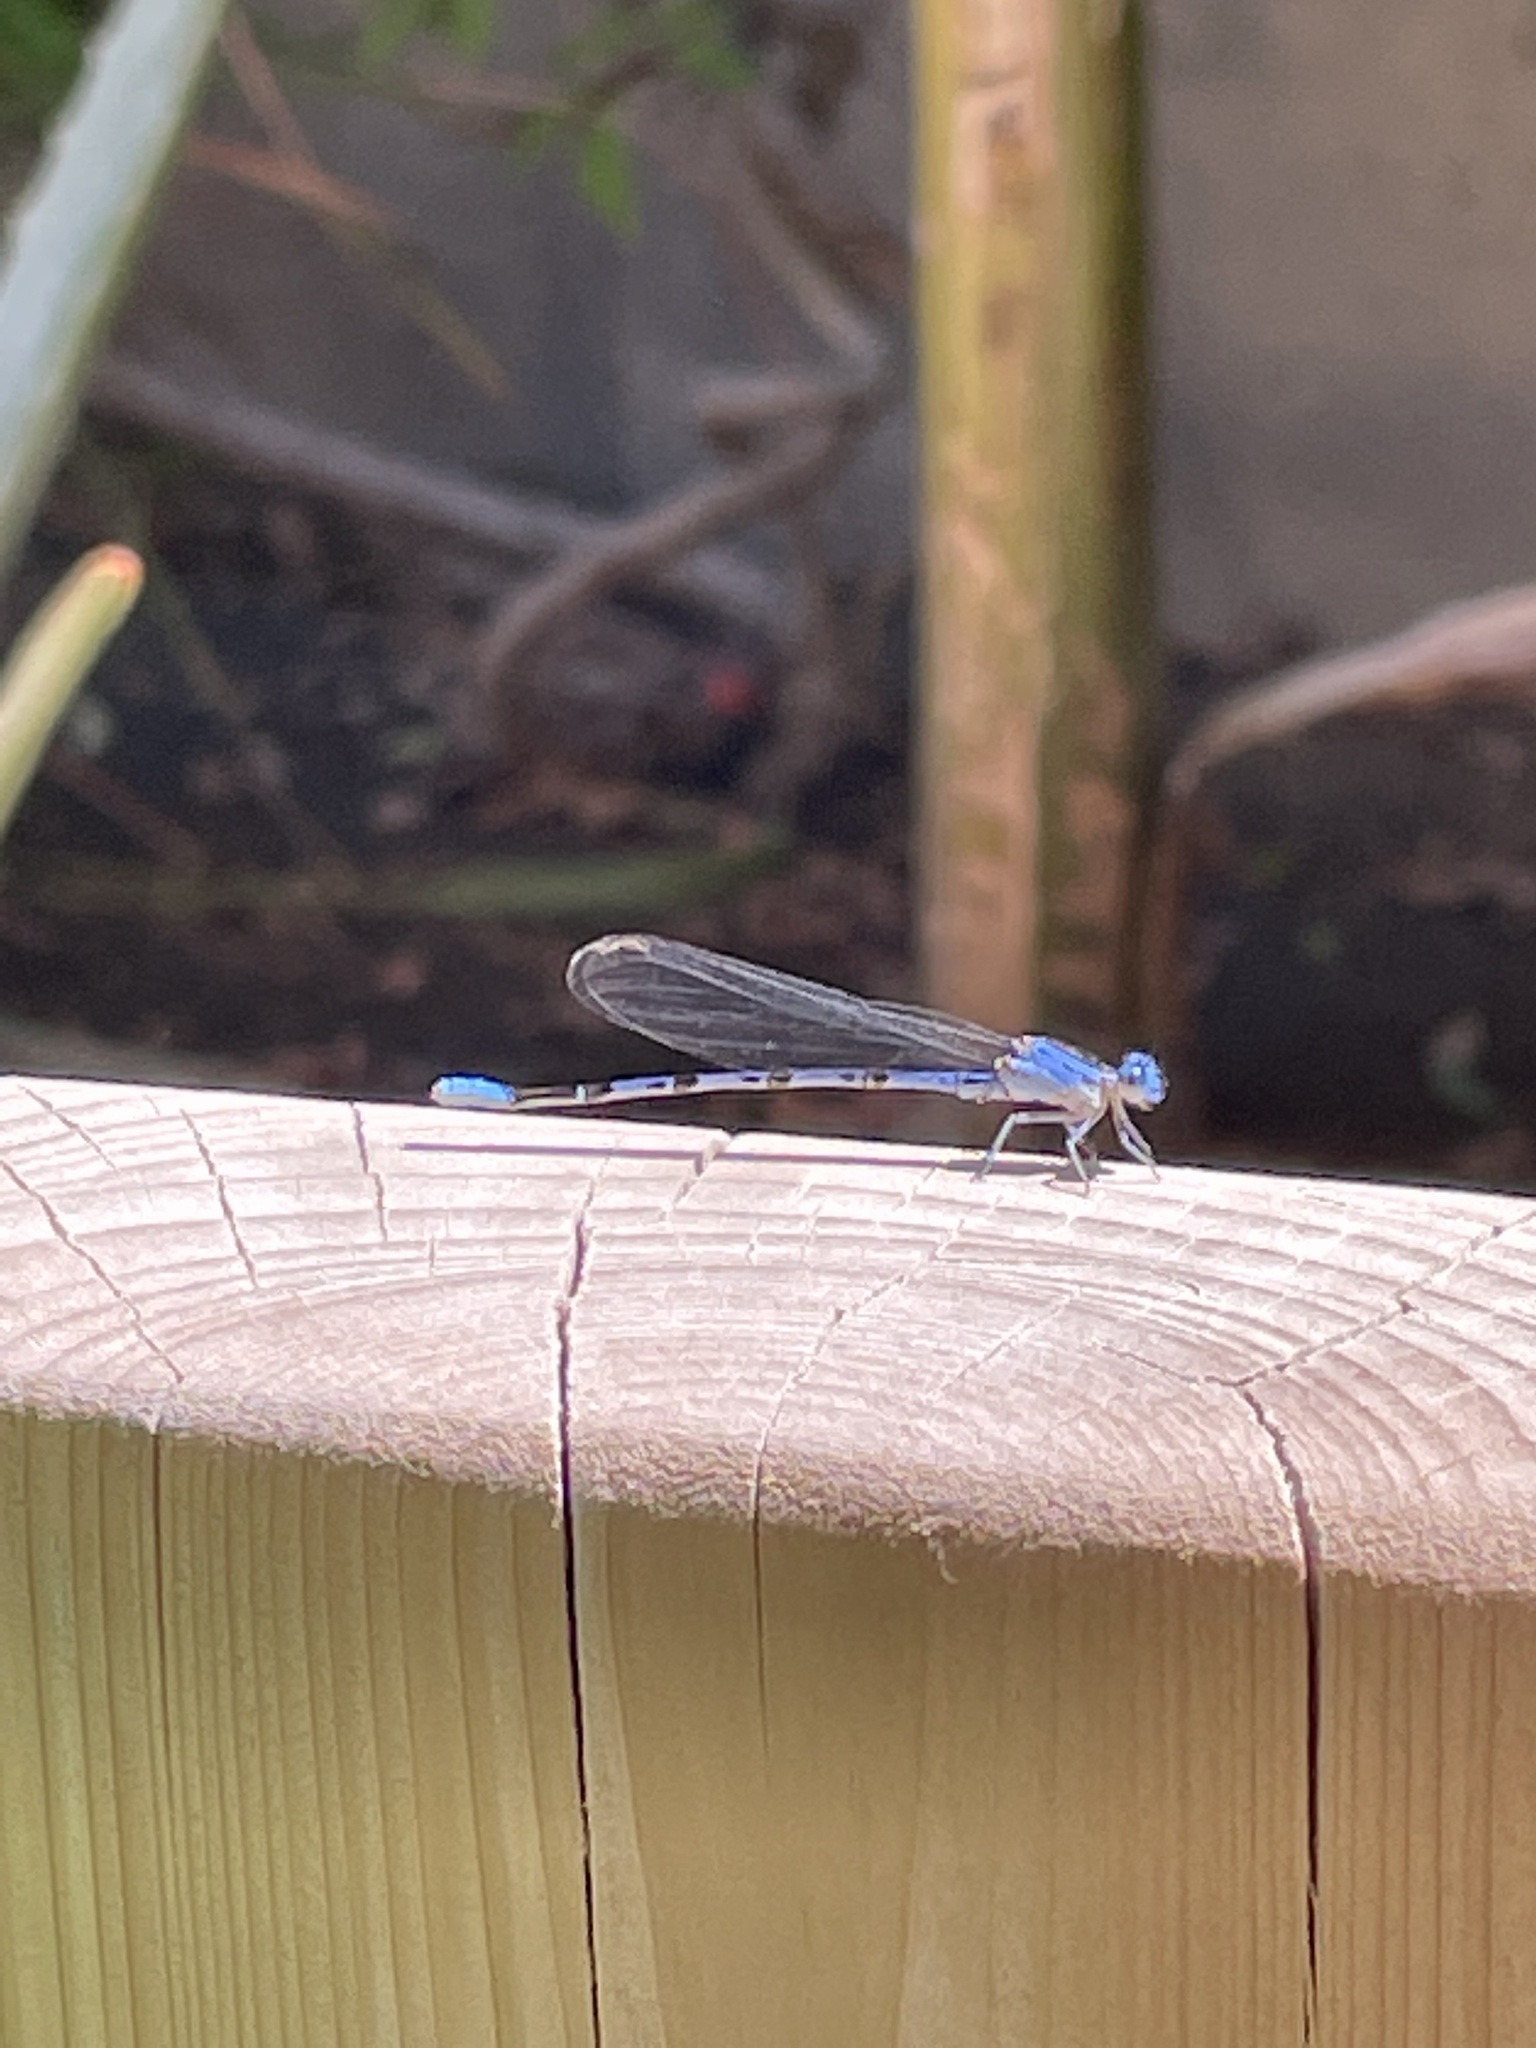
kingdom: Animalia
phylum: Arthropoda
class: Insecta
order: Odonata
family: Coenagrionidae
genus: Argia
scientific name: Argia vivida
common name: Vivid dancer
